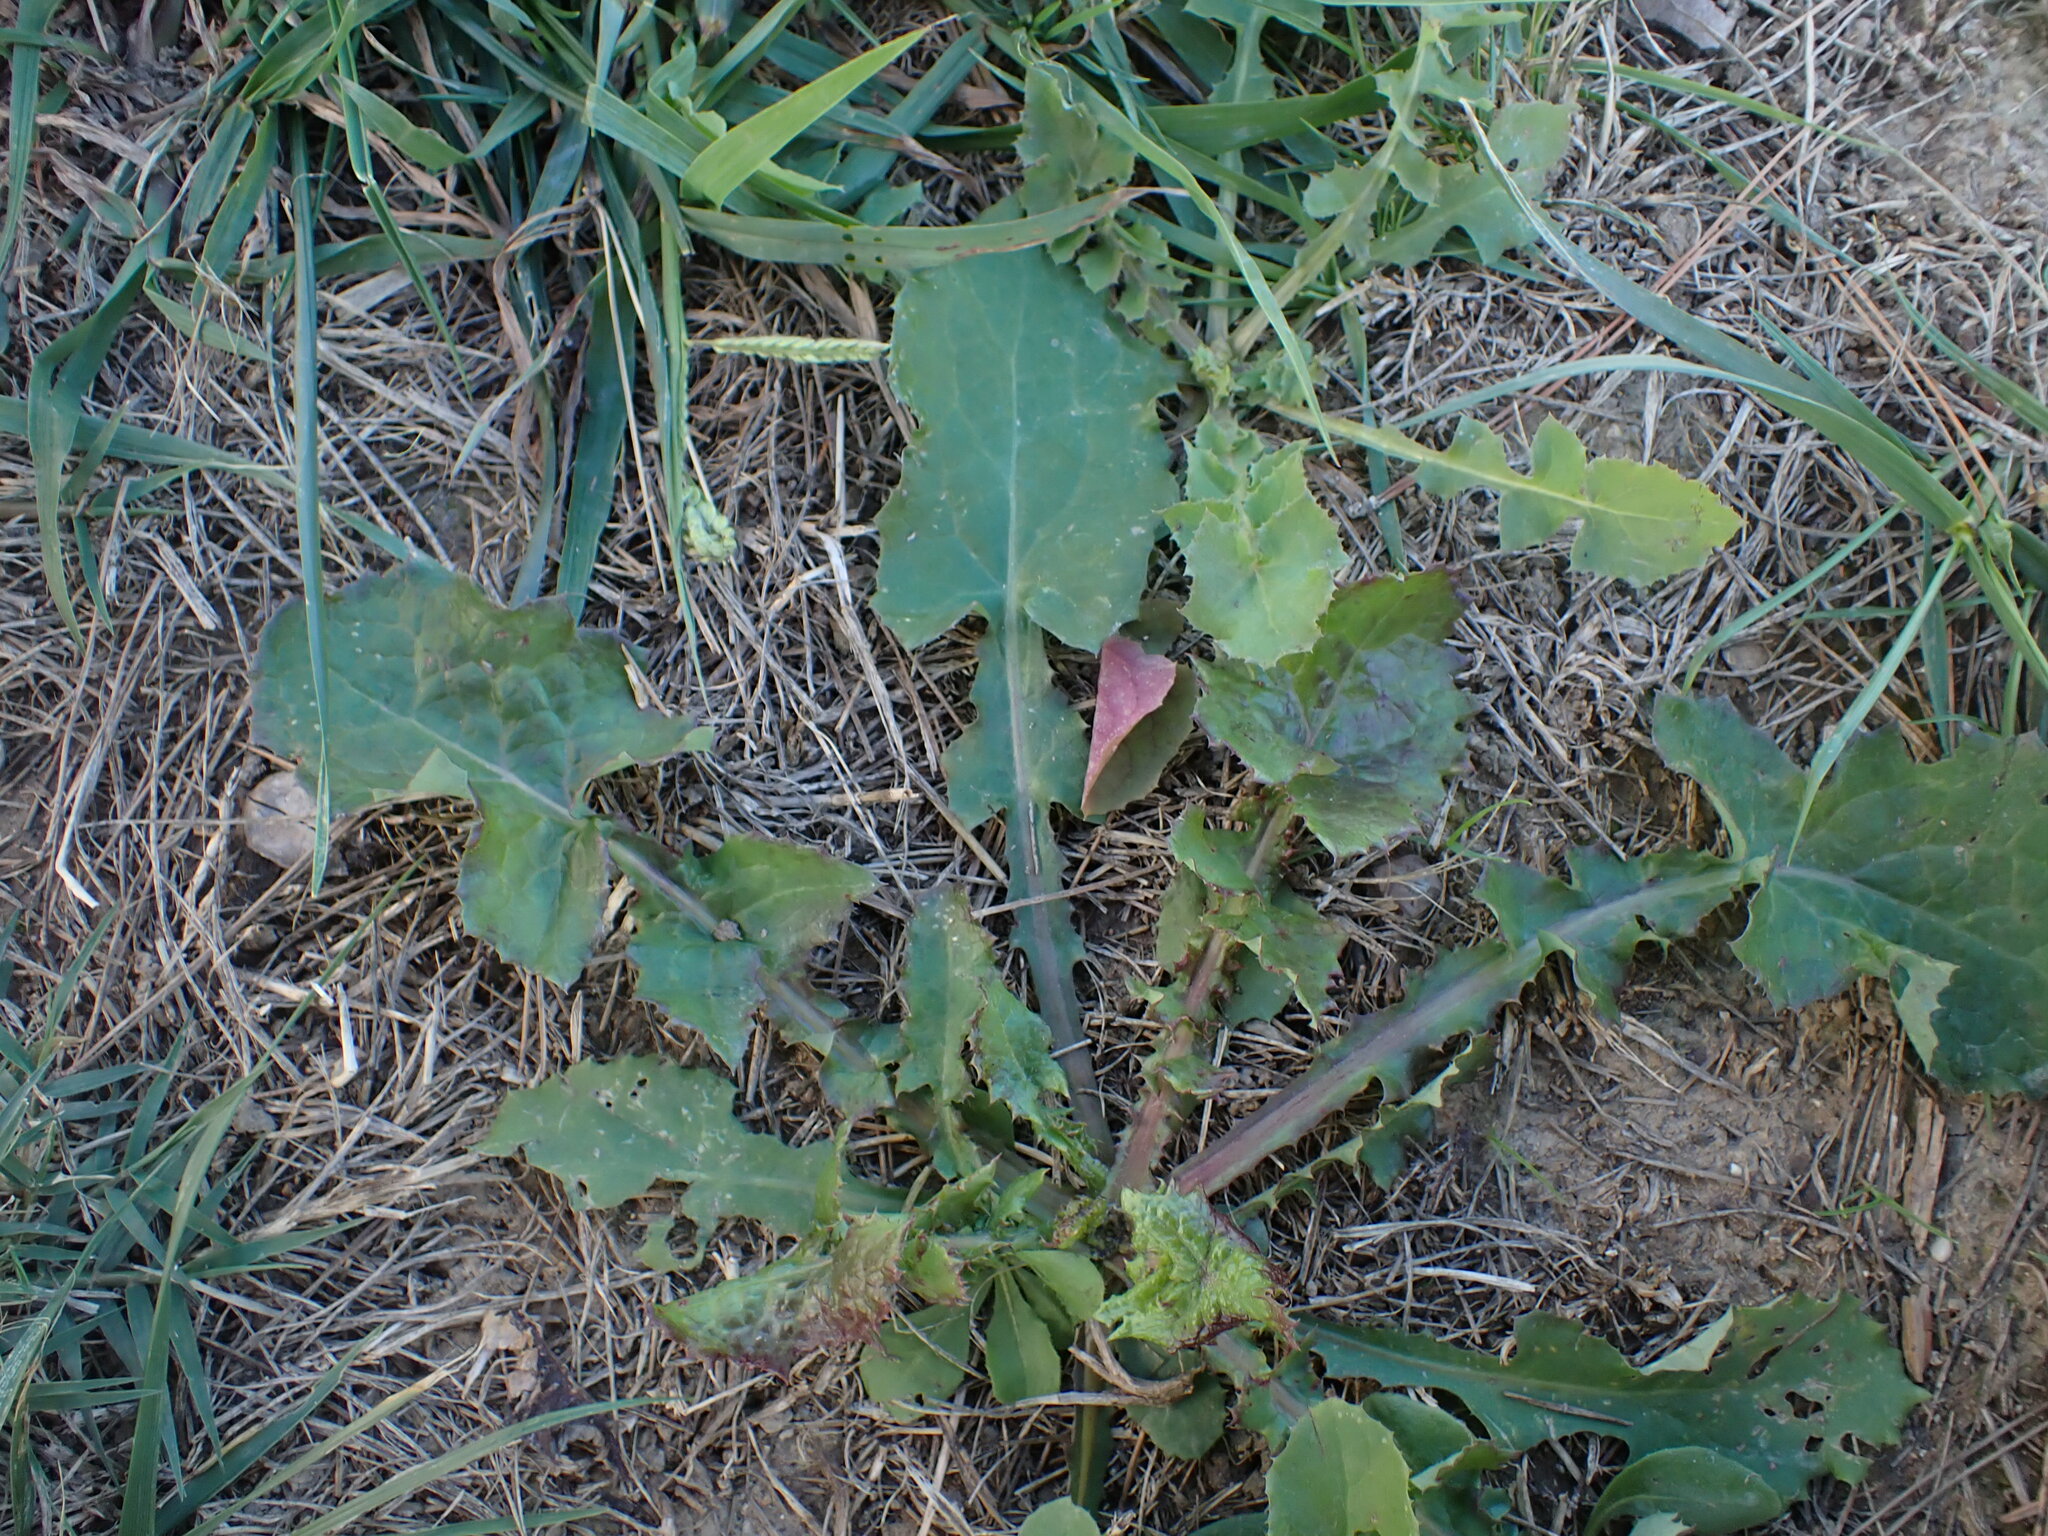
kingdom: Plantae
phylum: Tracheophyta
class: Magnoliopsida
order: Asterales
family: Asteraceae
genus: Sonchus
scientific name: Sonchus oleraceus
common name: Common sowthistle
